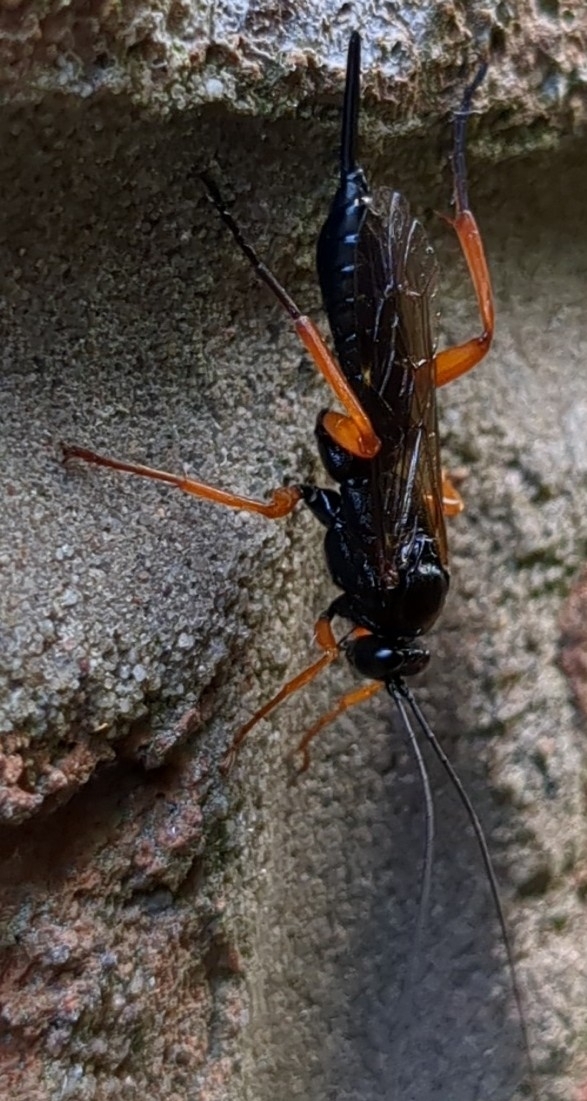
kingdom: Animalia
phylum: Arthropoda
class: Insecta
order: Hymenoptera
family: Ichneumonidae
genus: Pimpla
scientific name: Pimpla rufipes
